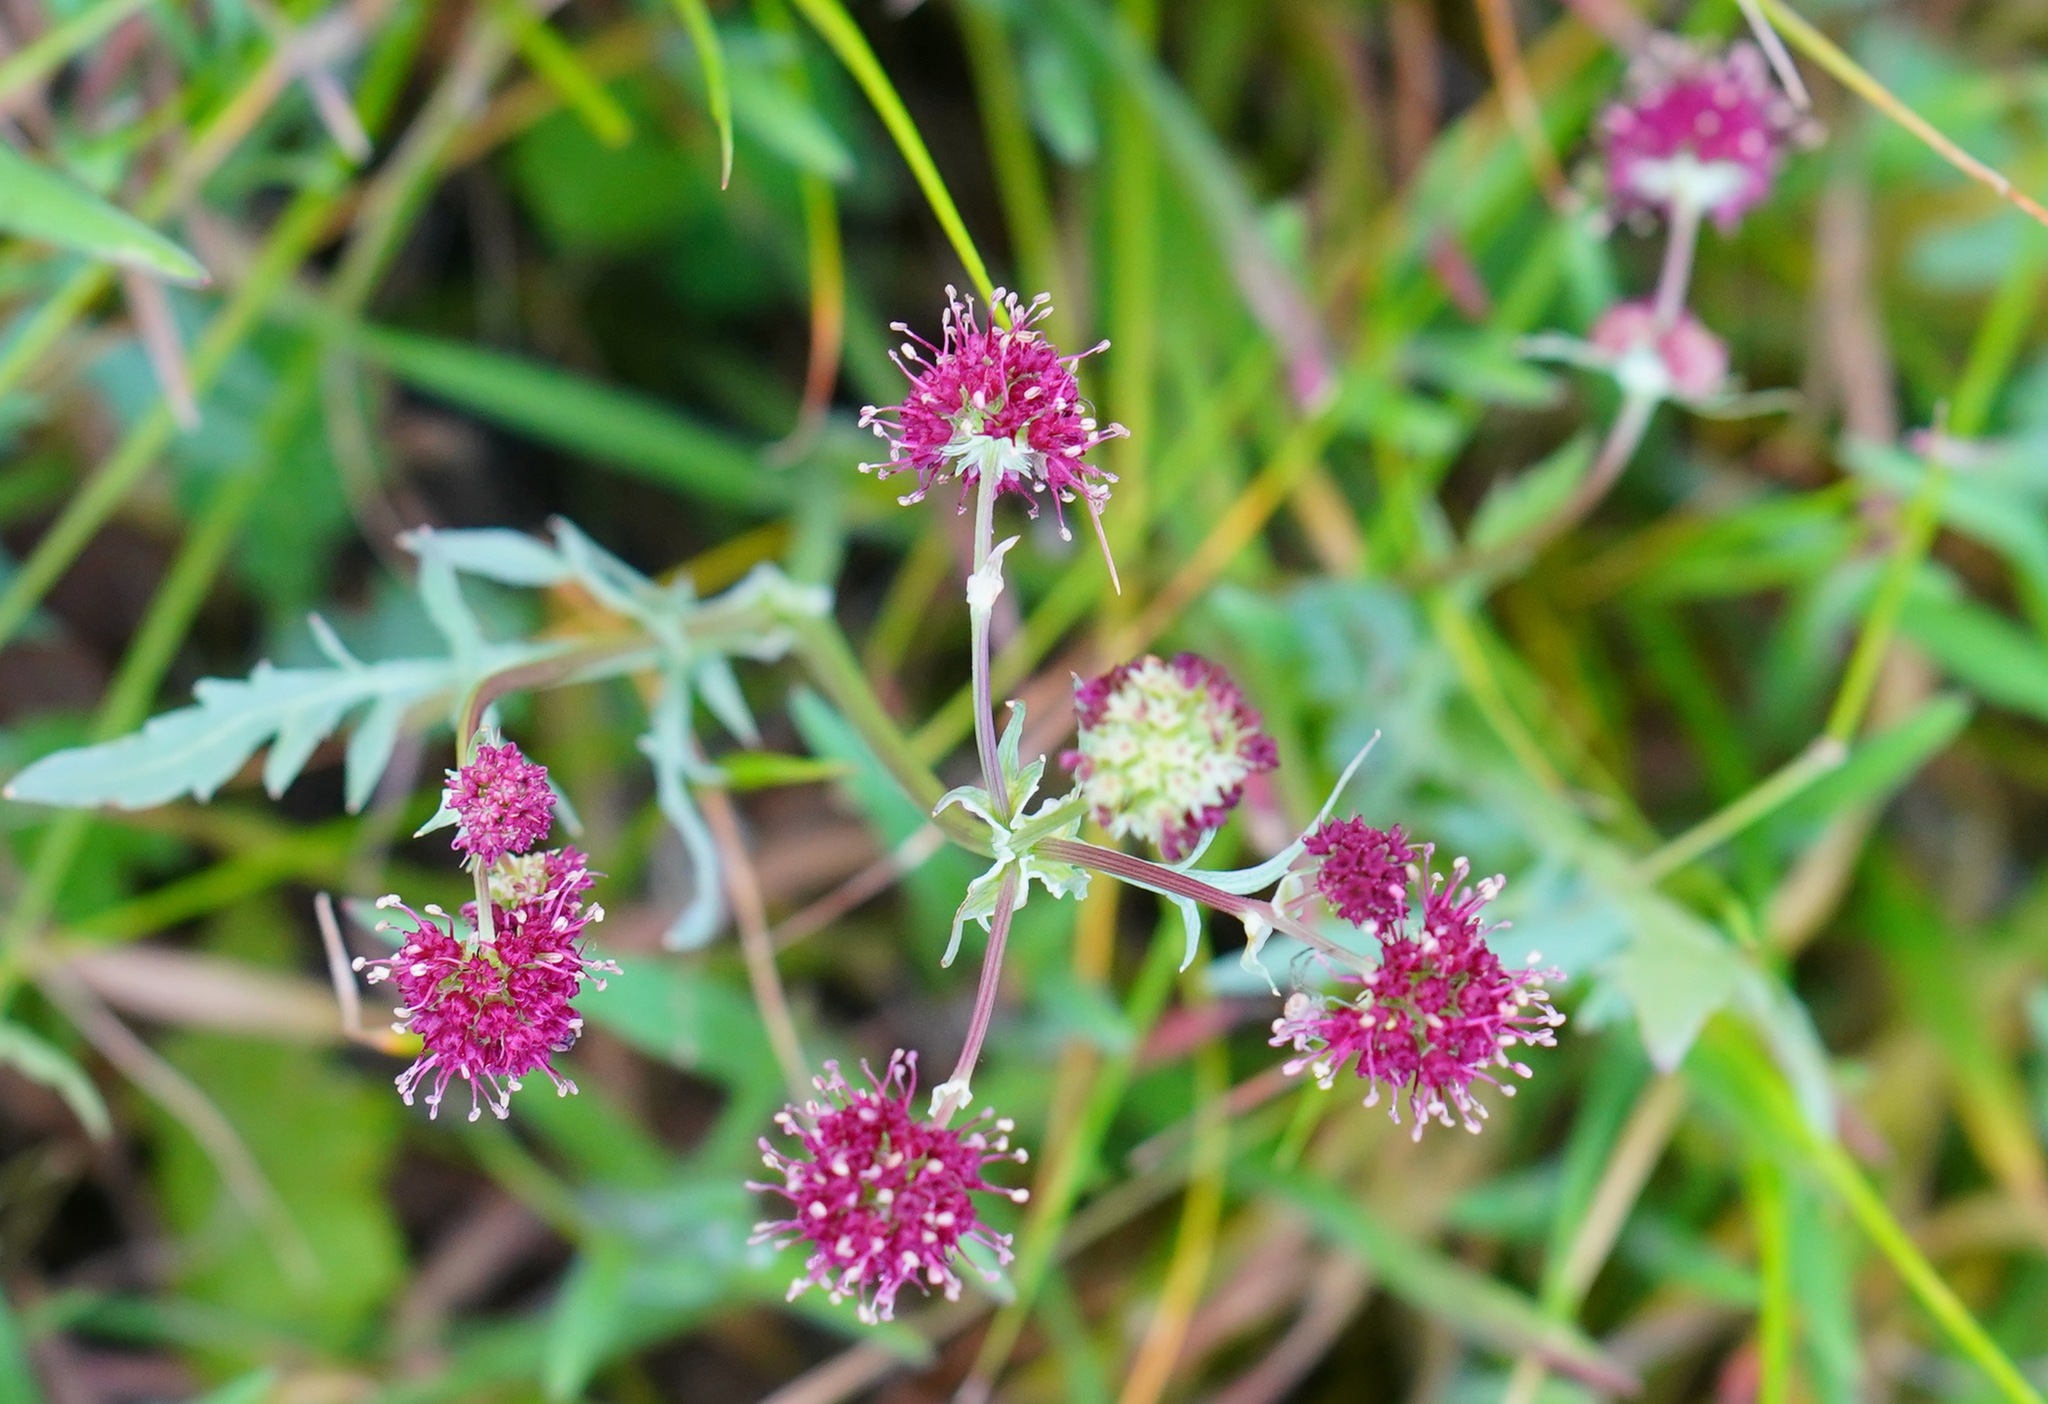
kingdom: Plantae
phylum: Tracheophyta
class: Magnoliopsida
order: Apiales
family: Apiaceae
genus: Sanicula
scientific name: Sanicula bipinnatifida
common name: Shoe-buttons
